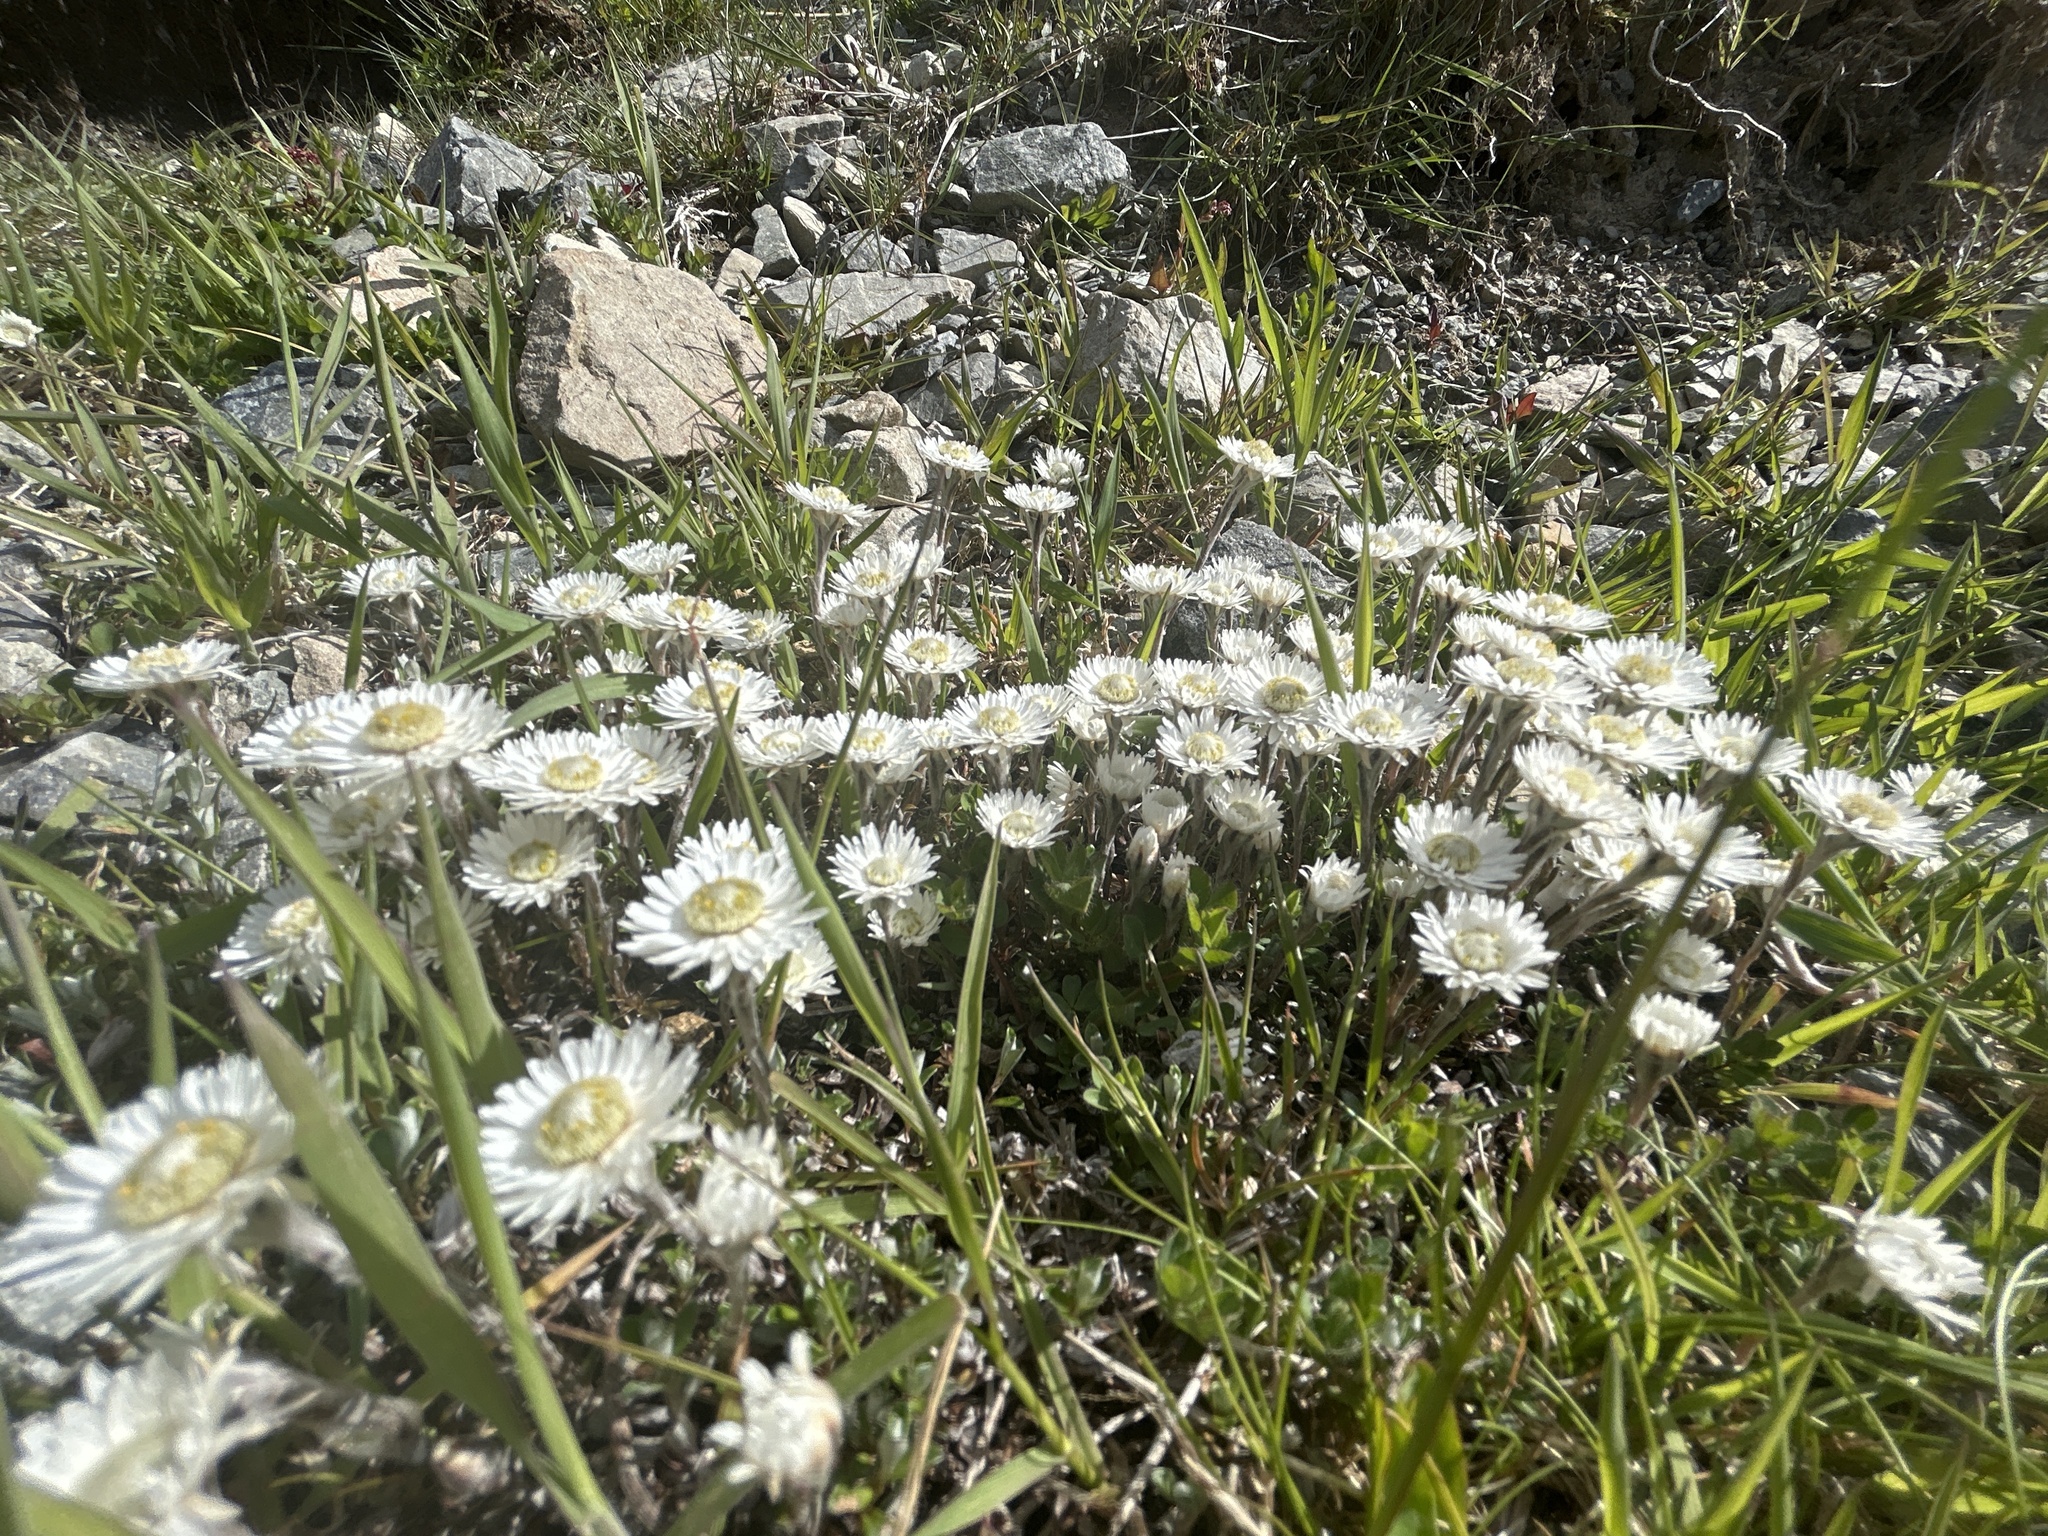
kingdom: Plantae
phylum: Tracheophyta
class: Magnoliopsida
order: Asterales
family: Asteraceae
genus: Anaphalioides
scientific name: Anaphalioides bellidioides
